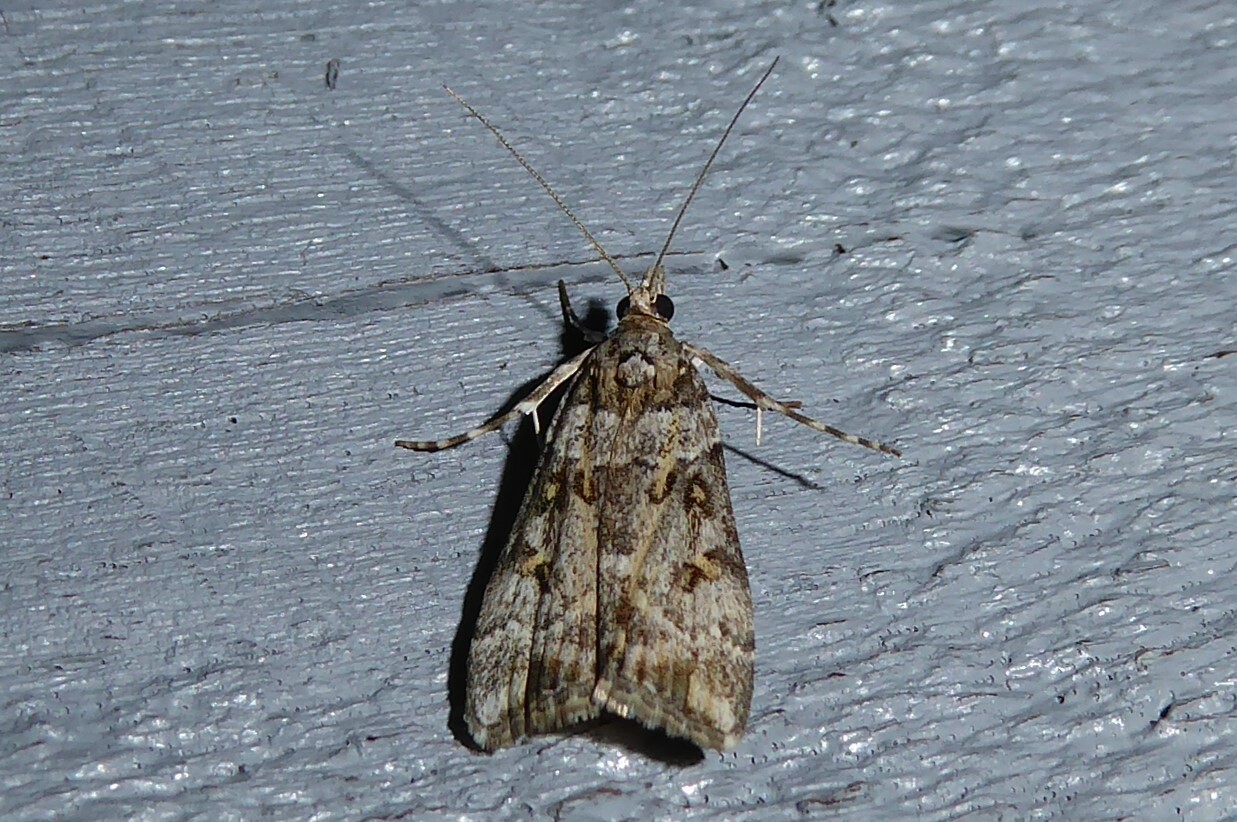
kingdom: Animalia
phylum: Arthropoda
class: Insecta
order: Lepidoptera
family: Crambidae
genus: Scoparia
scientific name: Scoparia tetracycla
